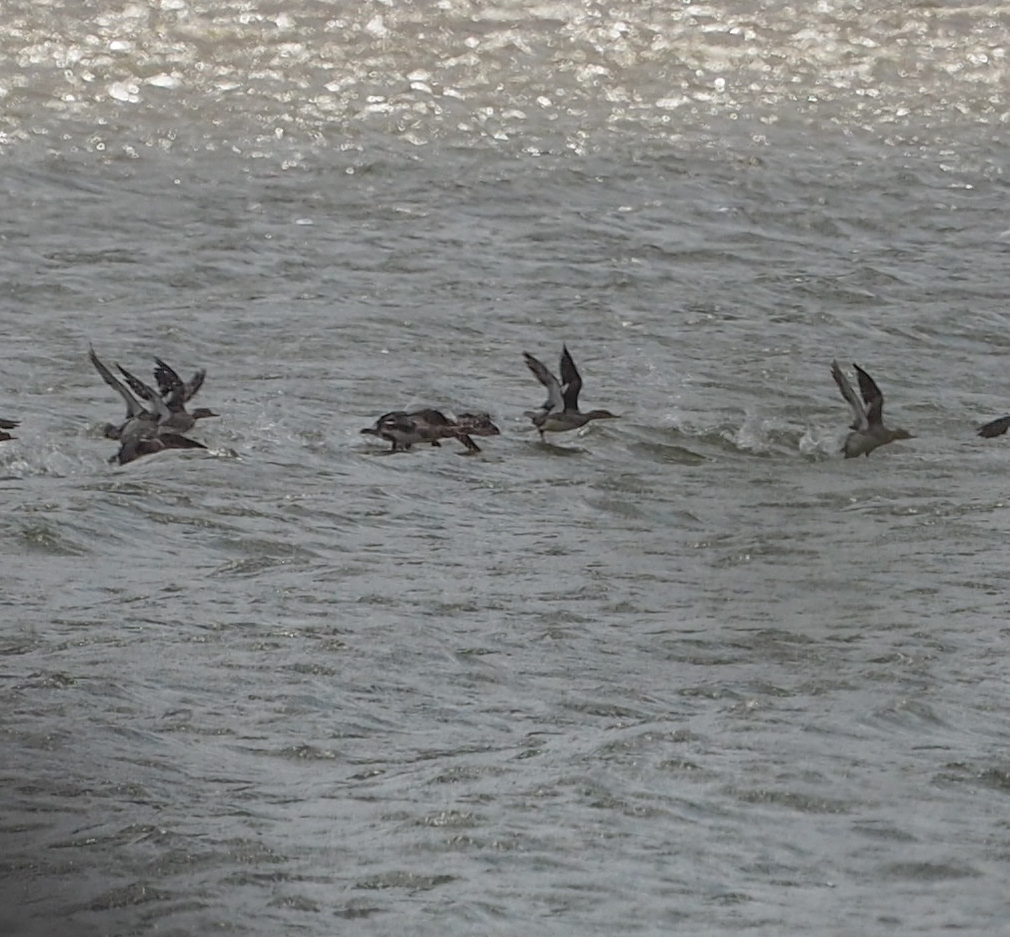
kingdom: Animalia
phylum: Chordata
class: Aves
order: Anseriformes
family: Anatidae
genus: Mergus
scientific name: Mergus serrator
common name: Red-breasted merganser
